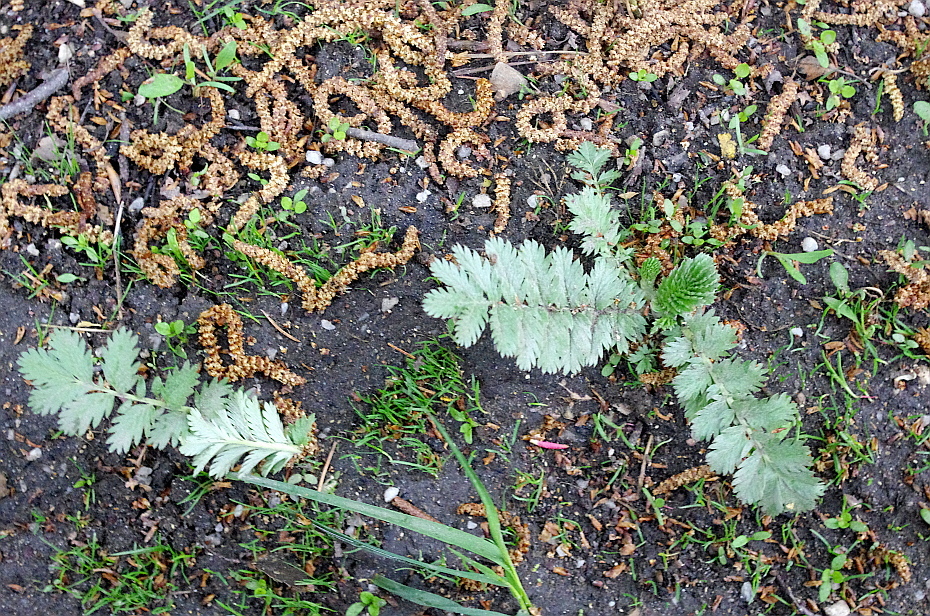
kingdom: Plantae
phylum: Tracheophyta
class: Magnoliopsida
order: Rosales
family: Rosaceae
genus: Argentina
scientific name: Argentina anserina
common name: Common silverweed
